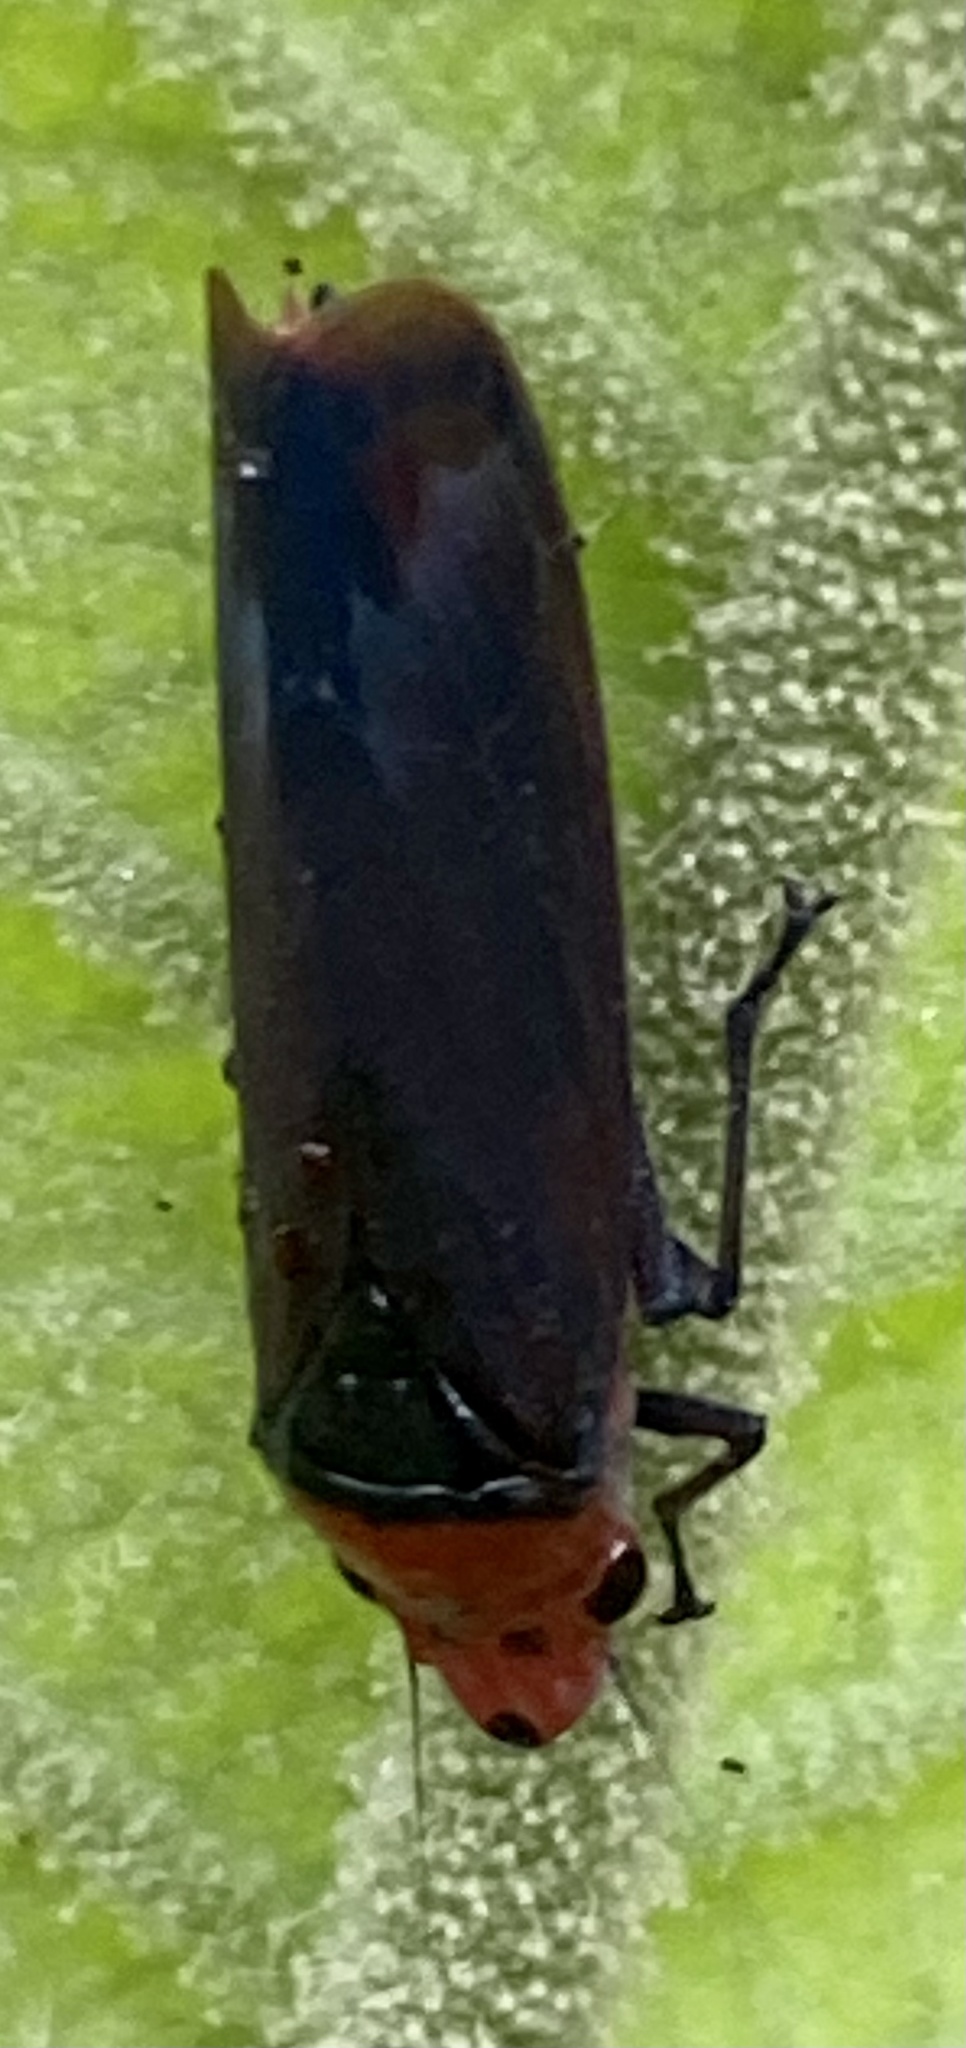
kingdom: Animalia
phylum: Arthropoda
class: Insecta
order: Hemiptera
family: Cicadellidae
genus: Aulacizes
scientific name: Aulacizes quadripunctata
